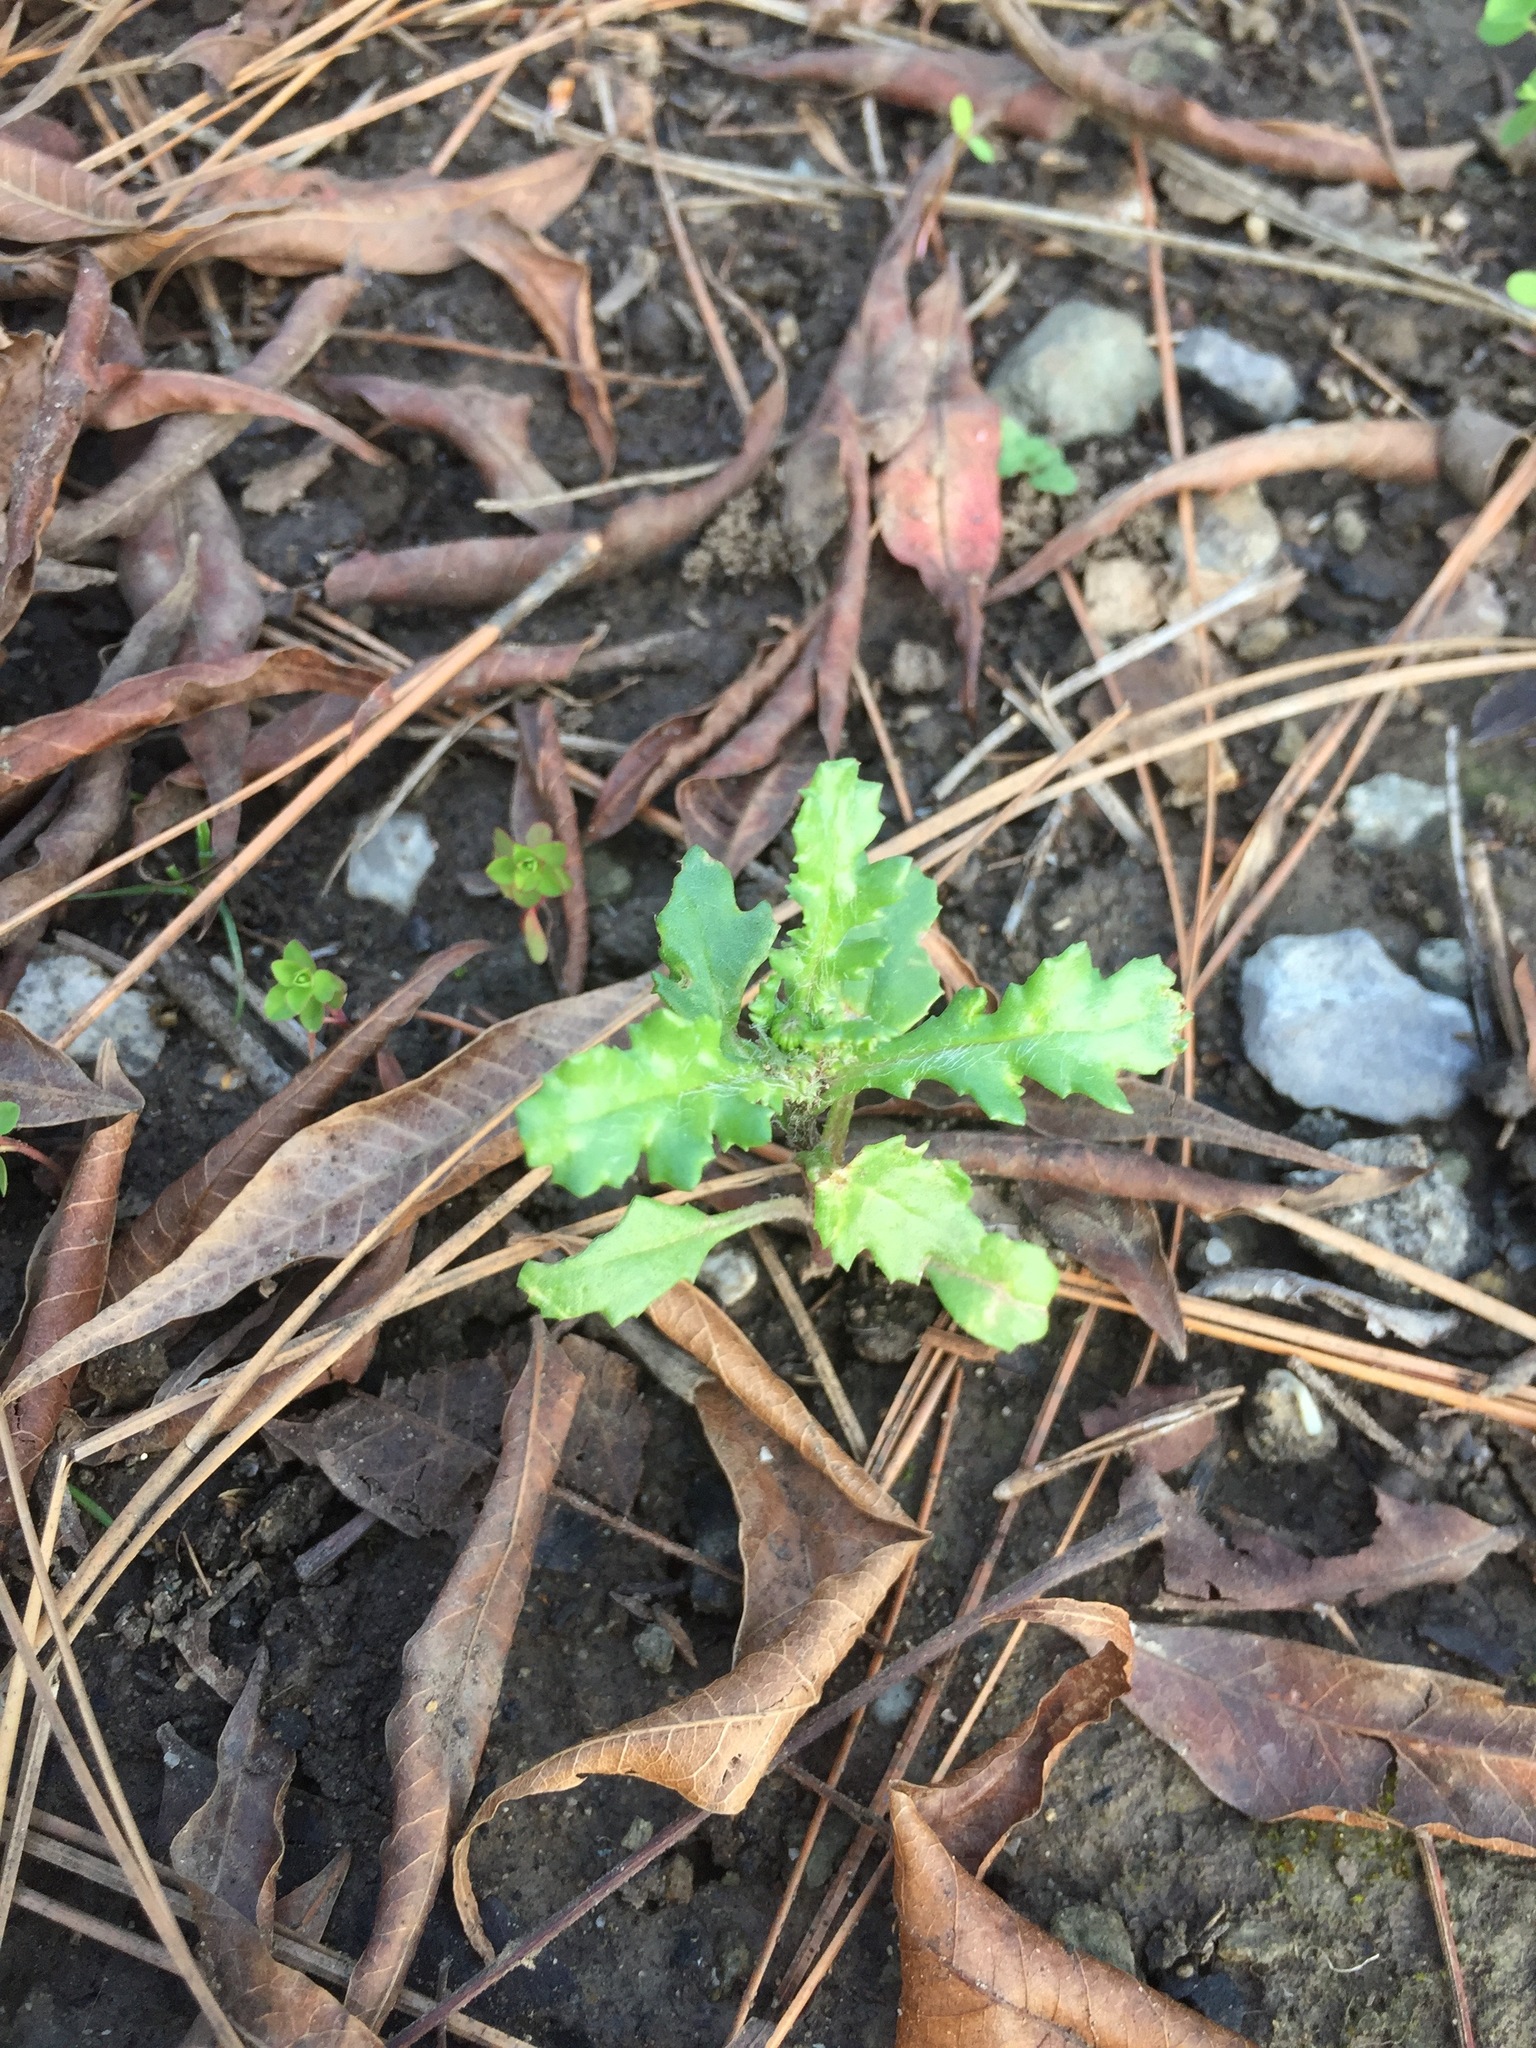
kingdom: Plantae
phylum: Tracheophyta
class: Magnoliopsida
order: Asterales
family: Asteraceae
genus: Senecio
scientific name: Senecio vulgaris
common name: Old-man-in-the-spring
